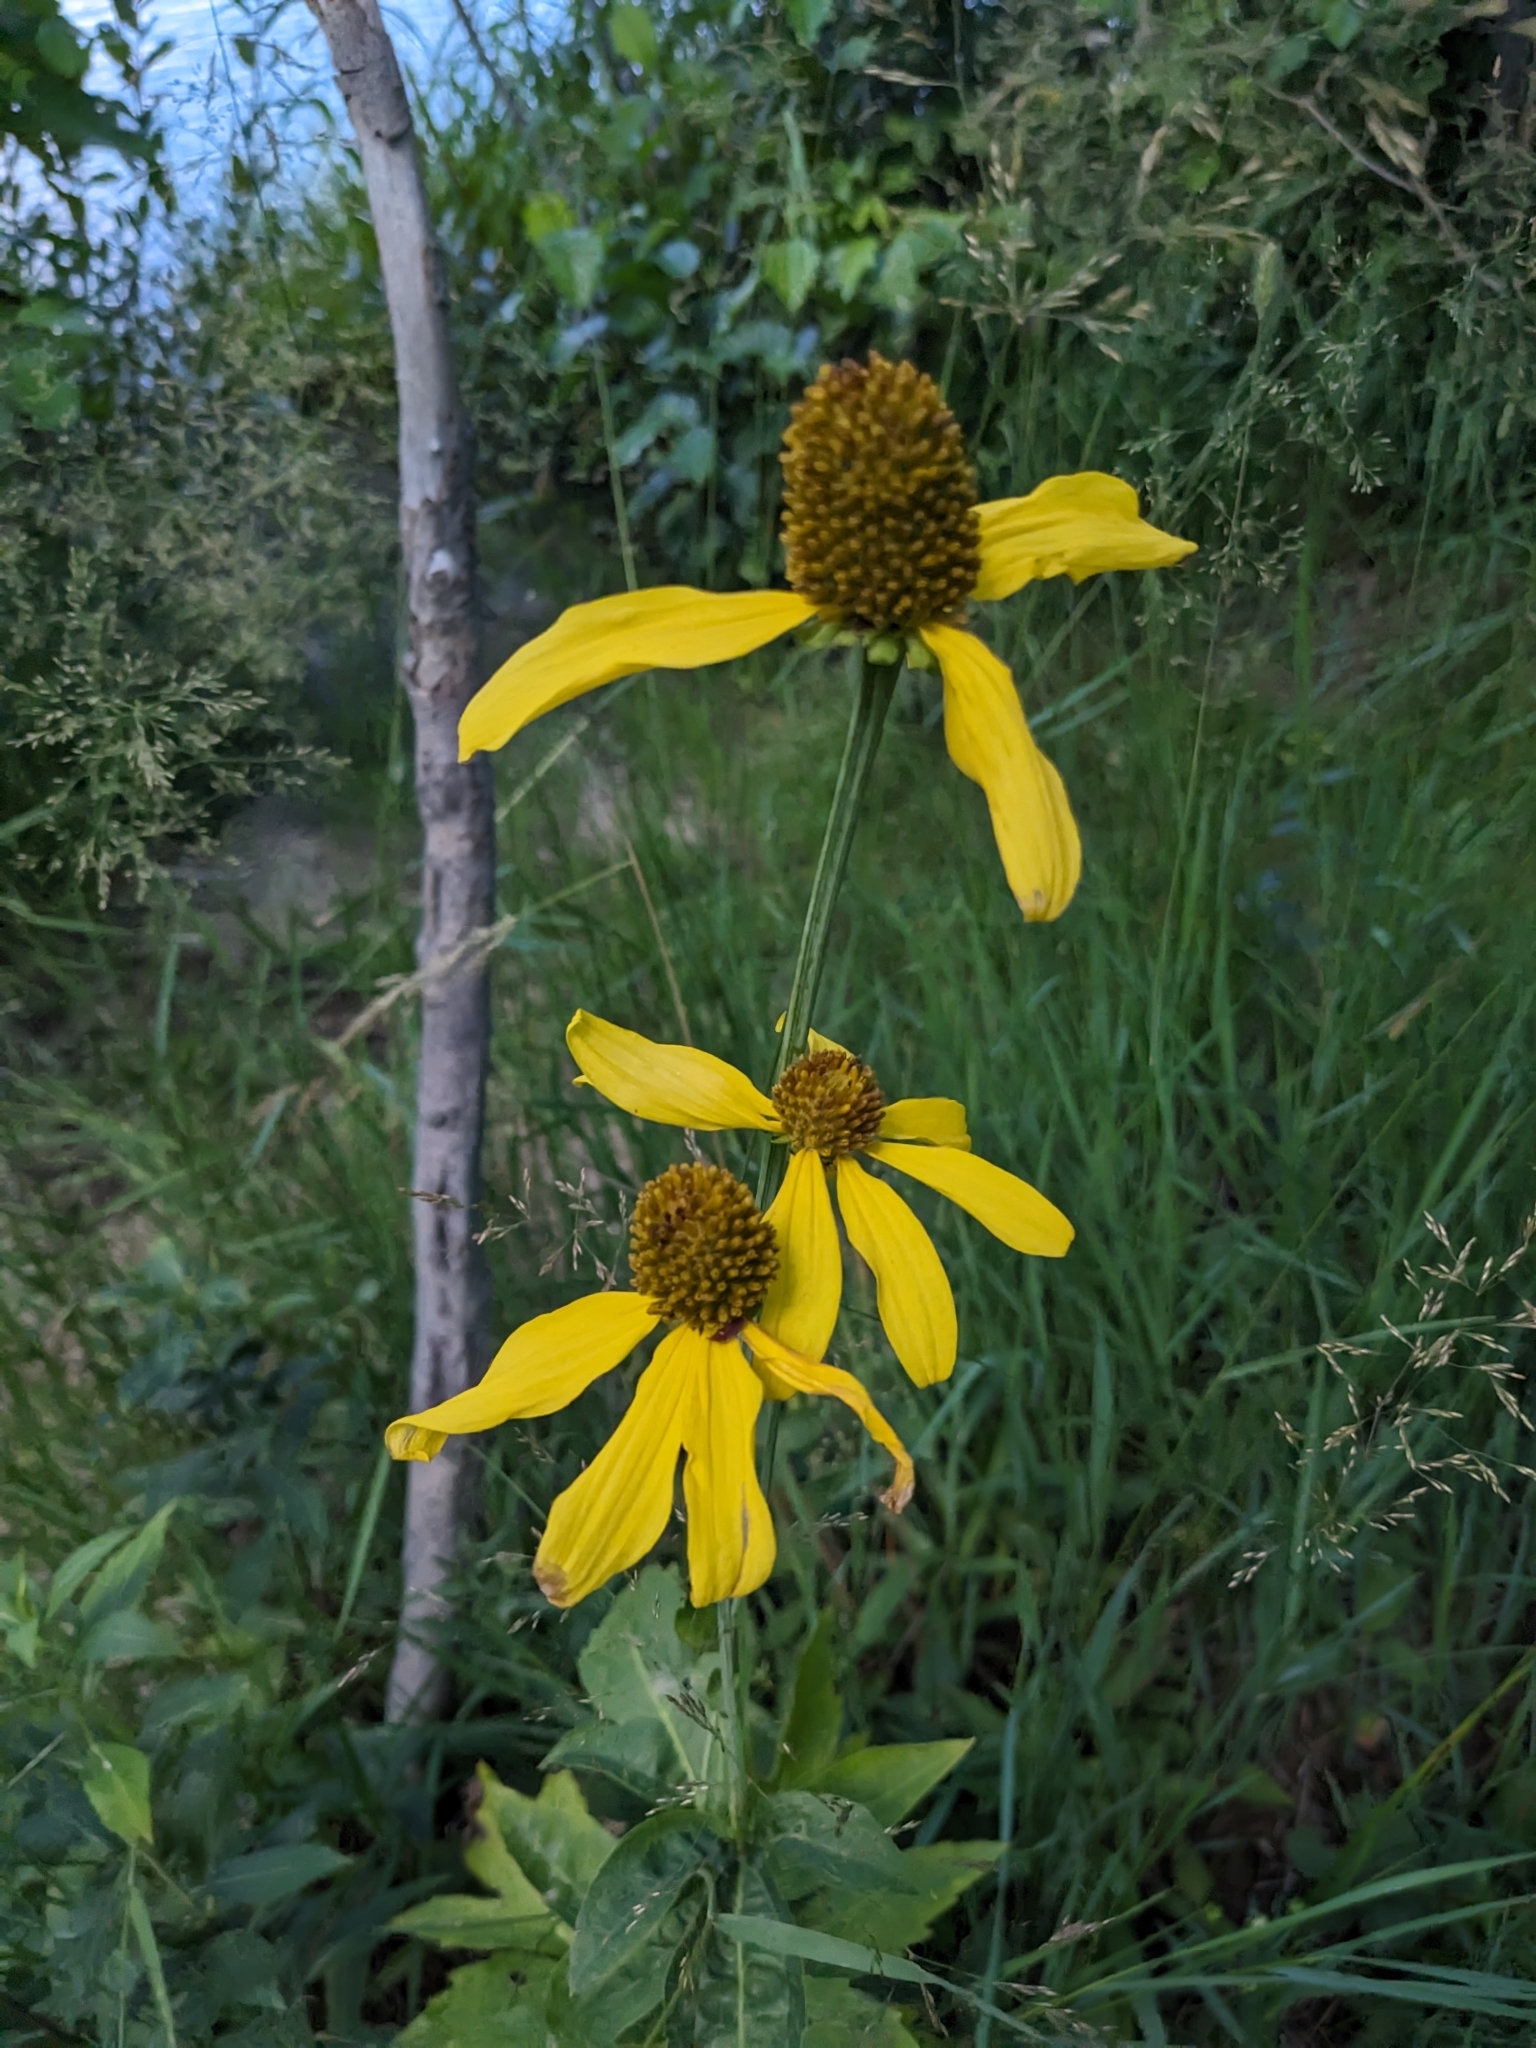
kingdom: Plantae
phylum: Tracheophyta
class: Magnoliopsida
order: Asterales
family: Asteraceae
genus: Rudbeckia
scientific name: Rudbeckia laciniata
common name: Coneflower
